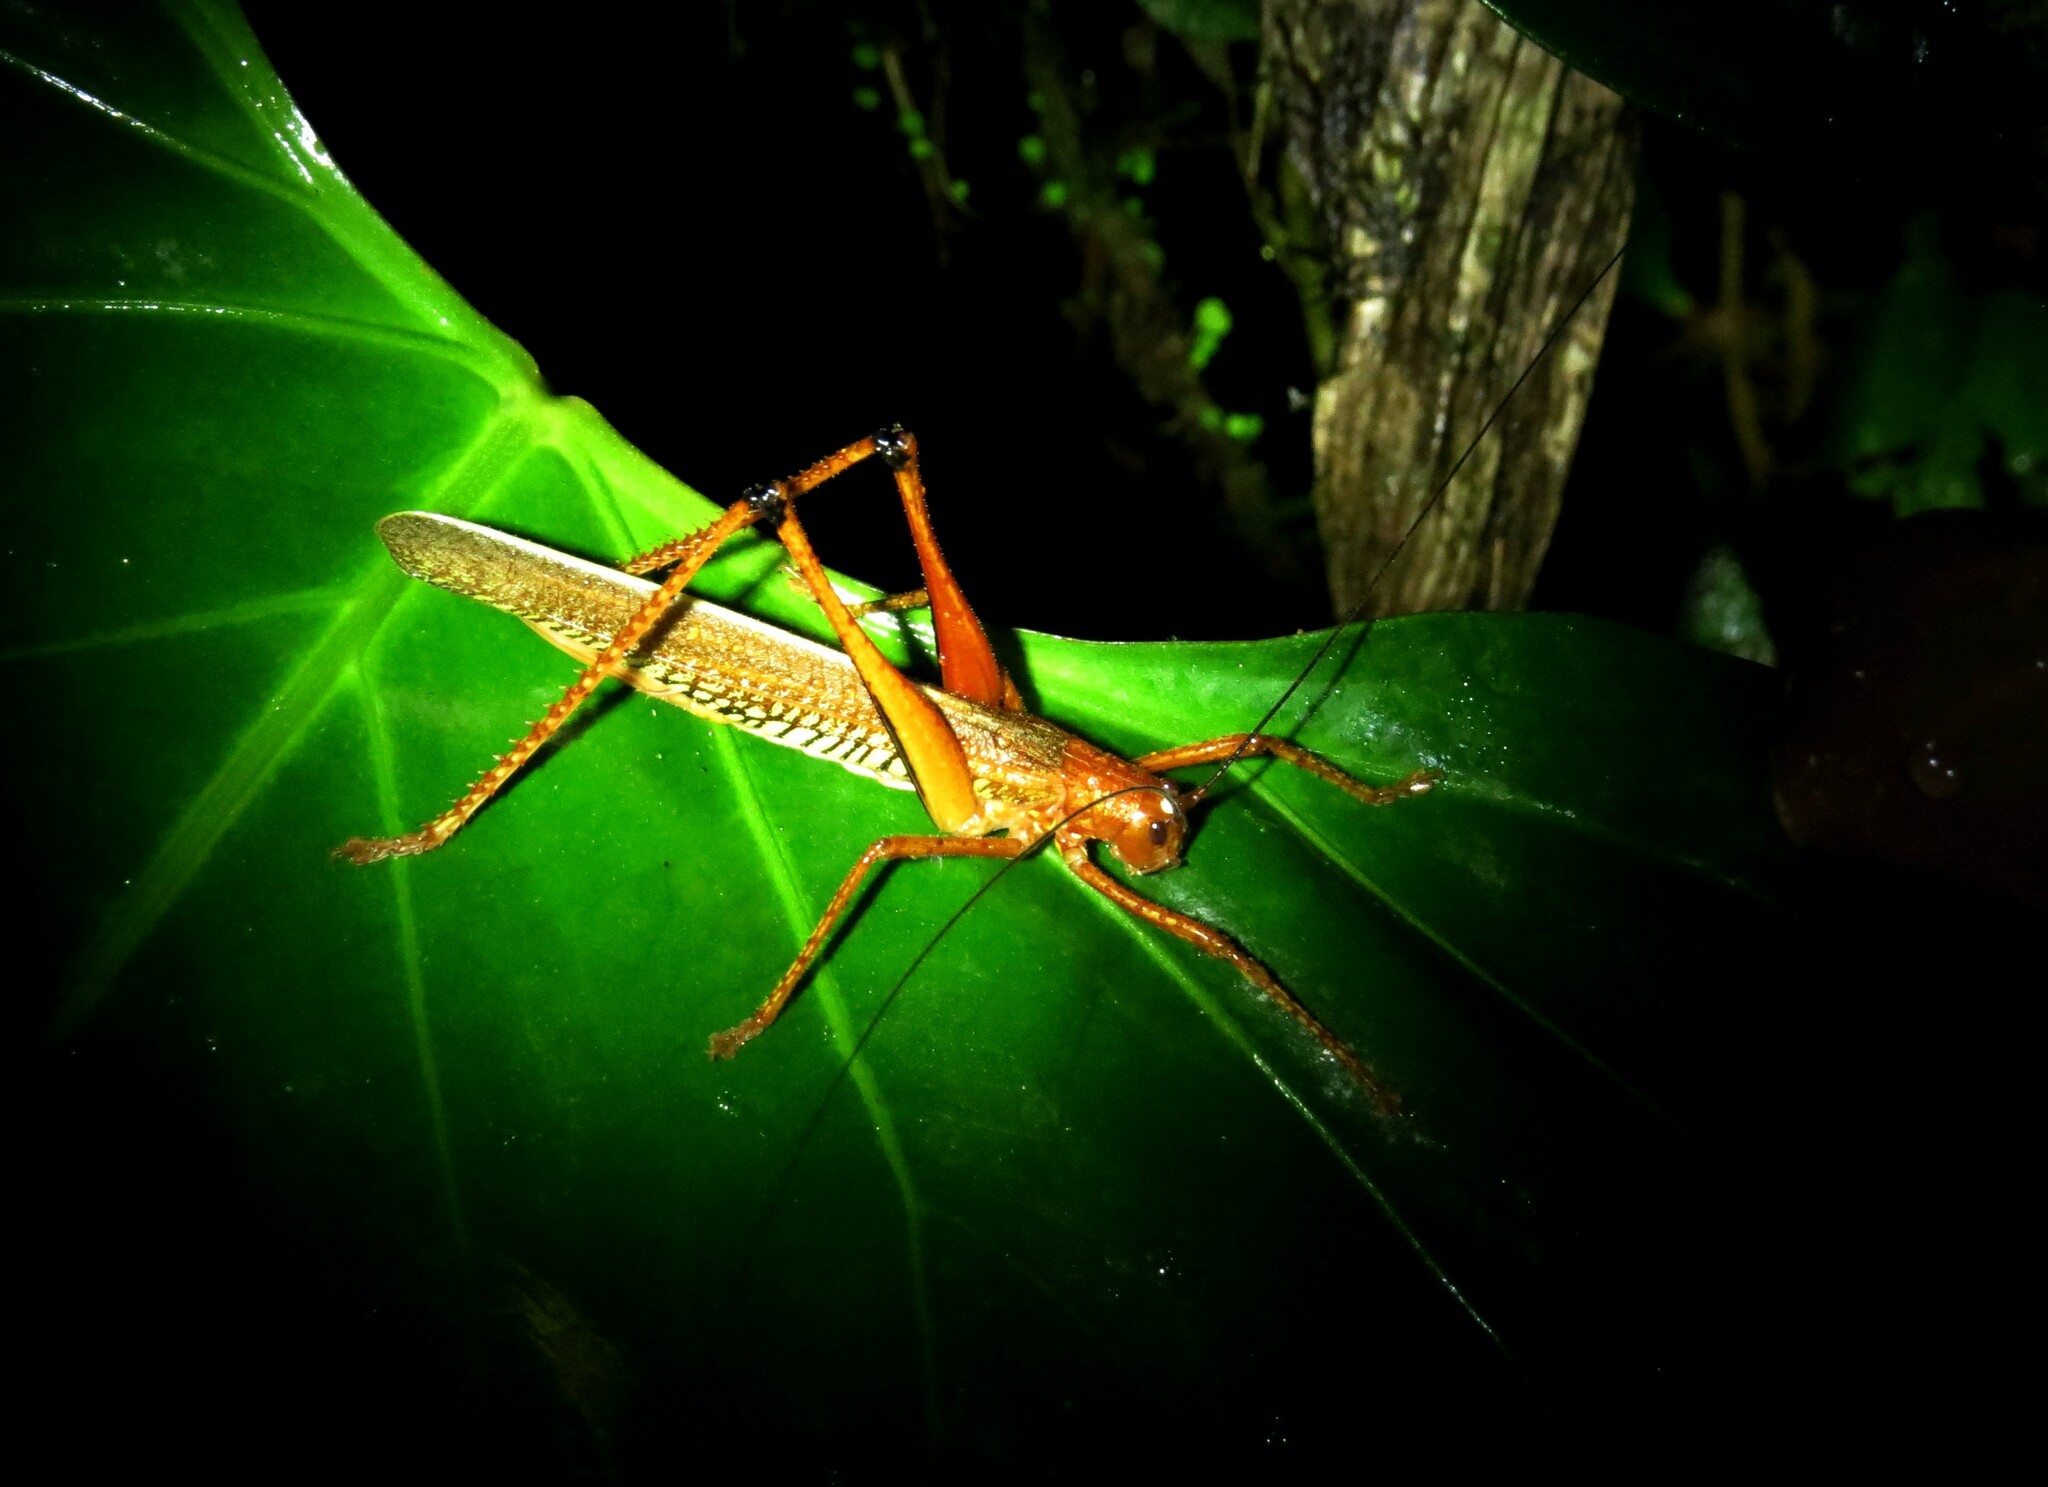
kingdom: Animalia
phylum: Arthropoda
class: Insecta
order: Orthoptera
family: Tettigoniidae
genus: Ischnomela
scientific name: Ischnomela gracilis
